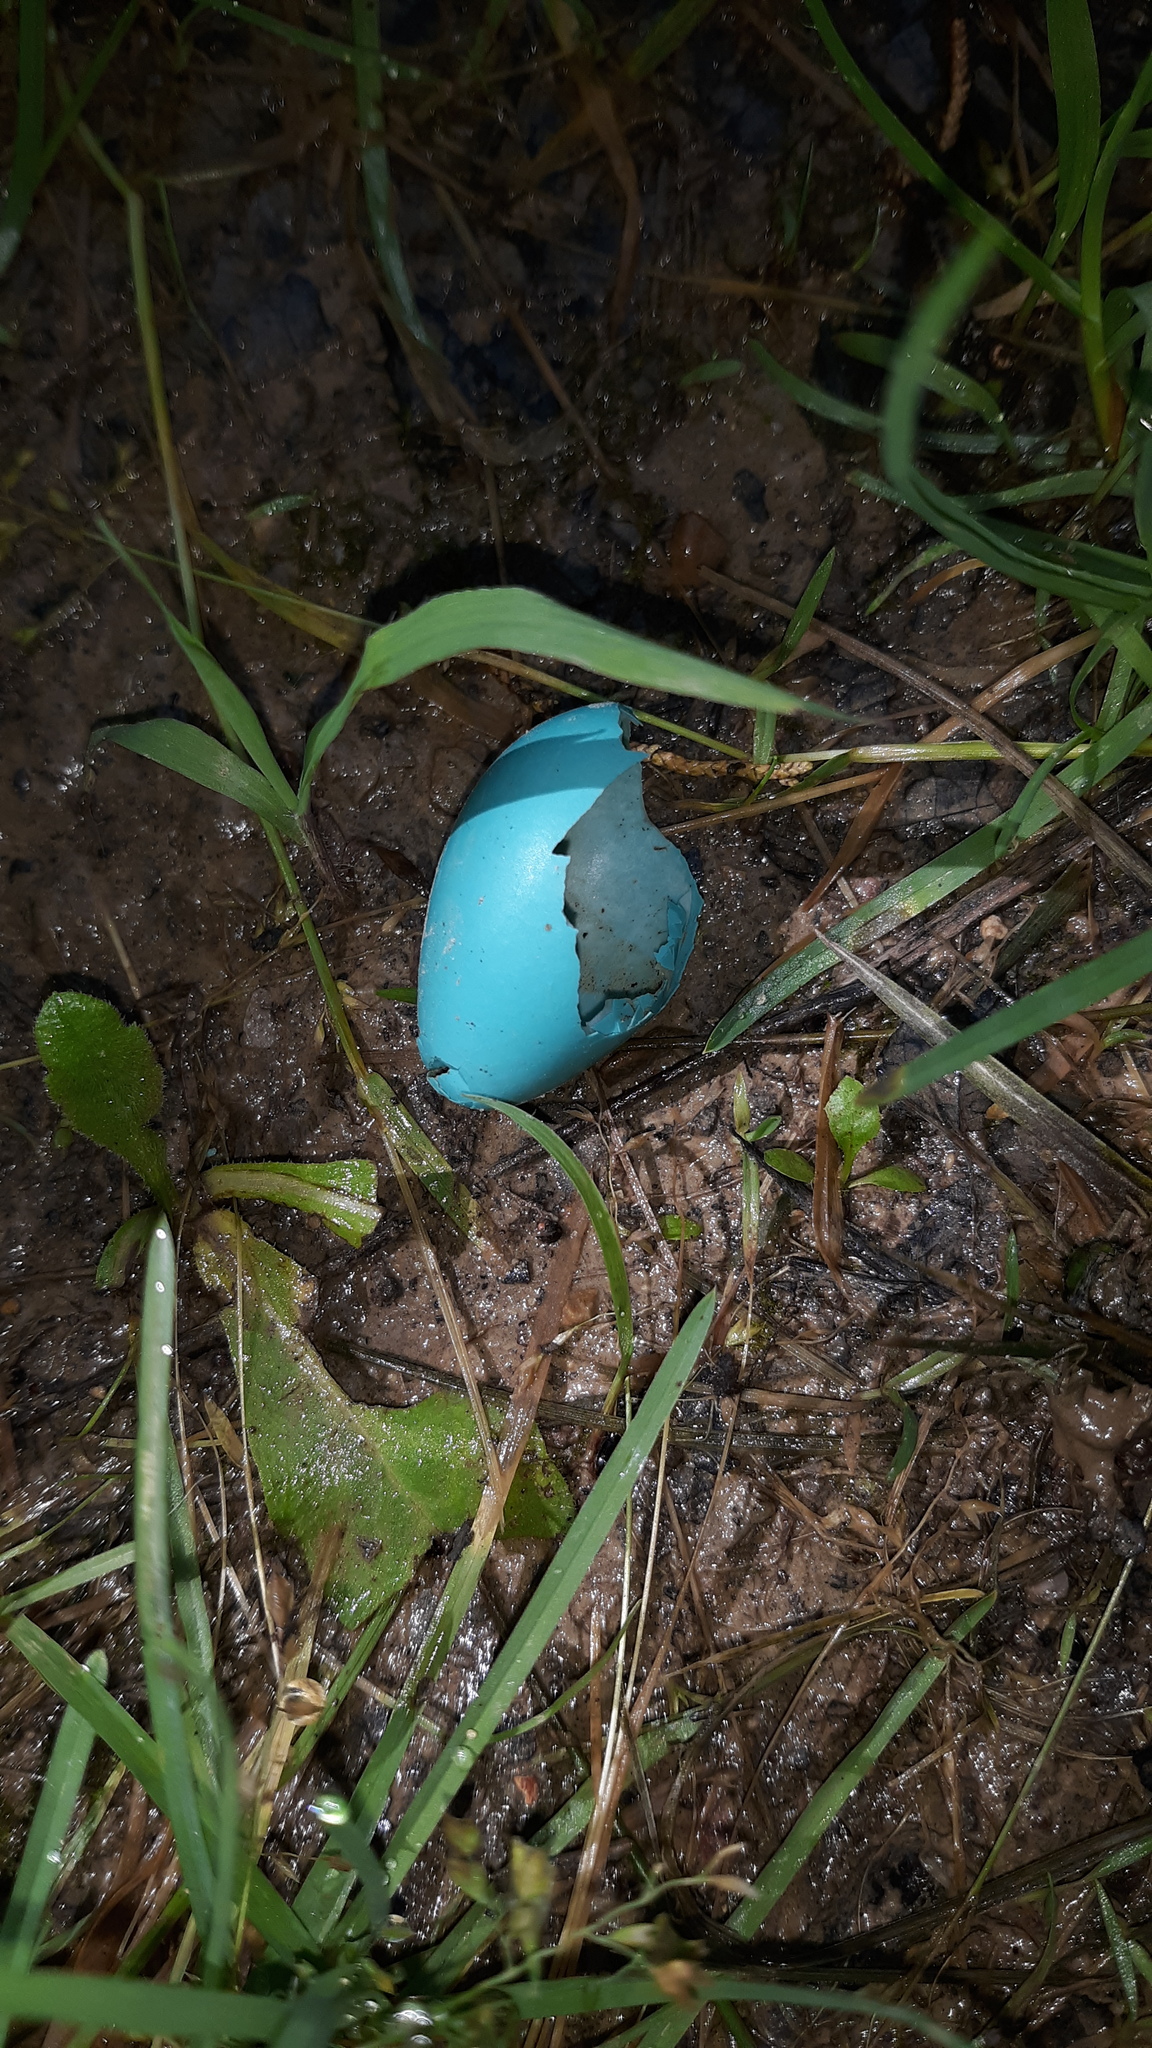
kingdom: Animalia
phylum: Chordata
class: Aves
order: Passeriformes
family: Turdidae
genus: Turdus
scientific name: Turdus migratorius
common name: American robin
